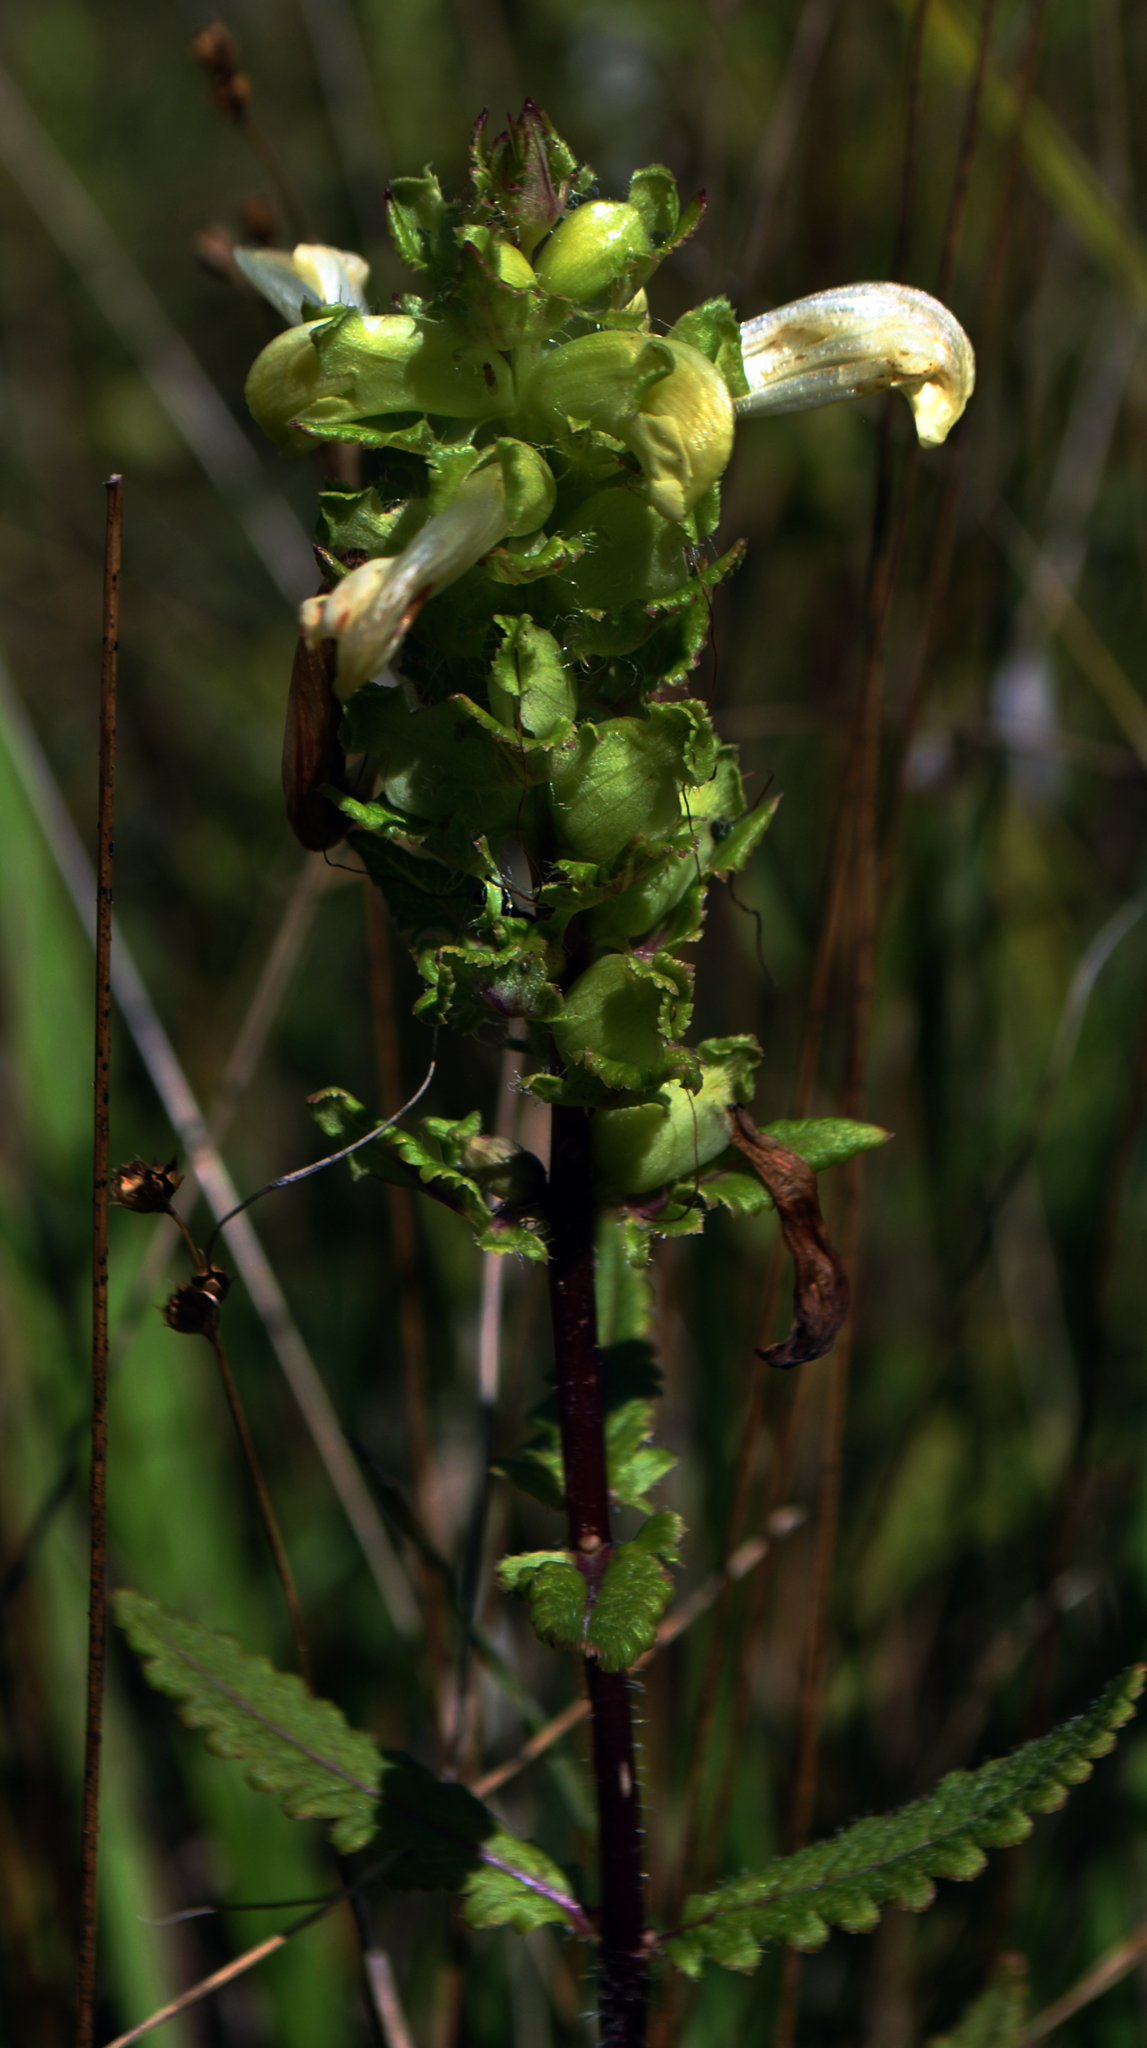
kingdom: Plantae
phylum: Tracheophyta
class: Magnoliopsida
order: Lamiales
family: Orobanchaceae
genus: Pedicularis
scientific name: Pedicularis lanceolata
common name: Swamp lousewort
